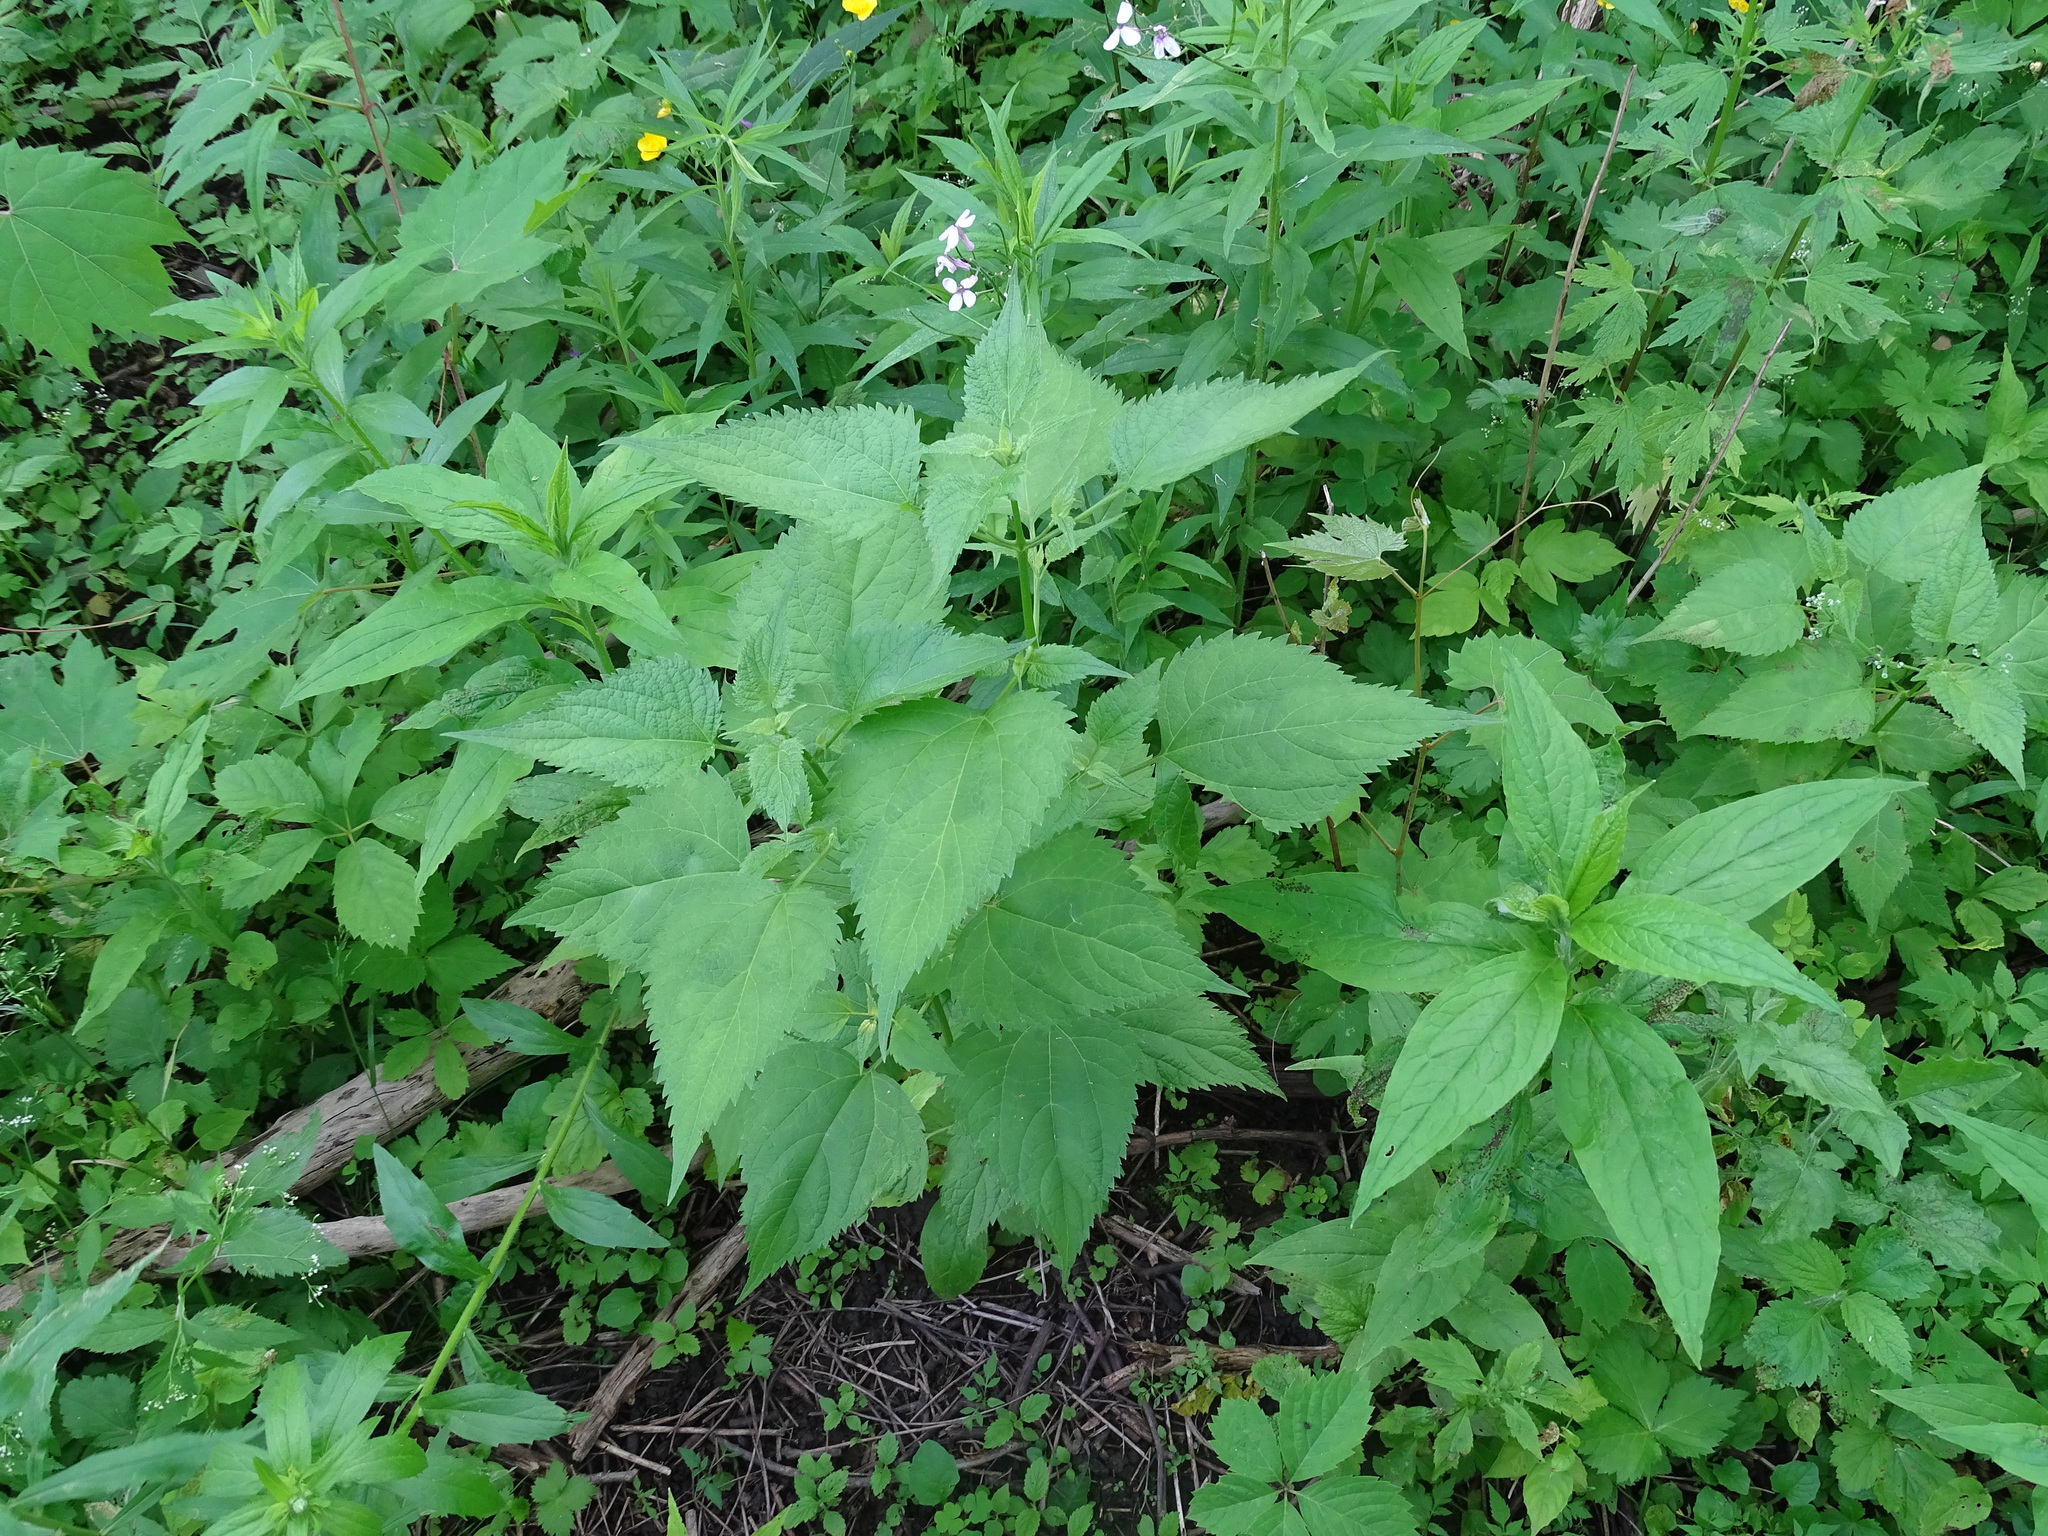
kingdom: Plantae
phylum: Tracheophyta
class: Magnoliopsida
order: Asterales
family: Asteraceae
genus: Ageratina
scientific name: Ageratina altissima
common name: White snakeroot
